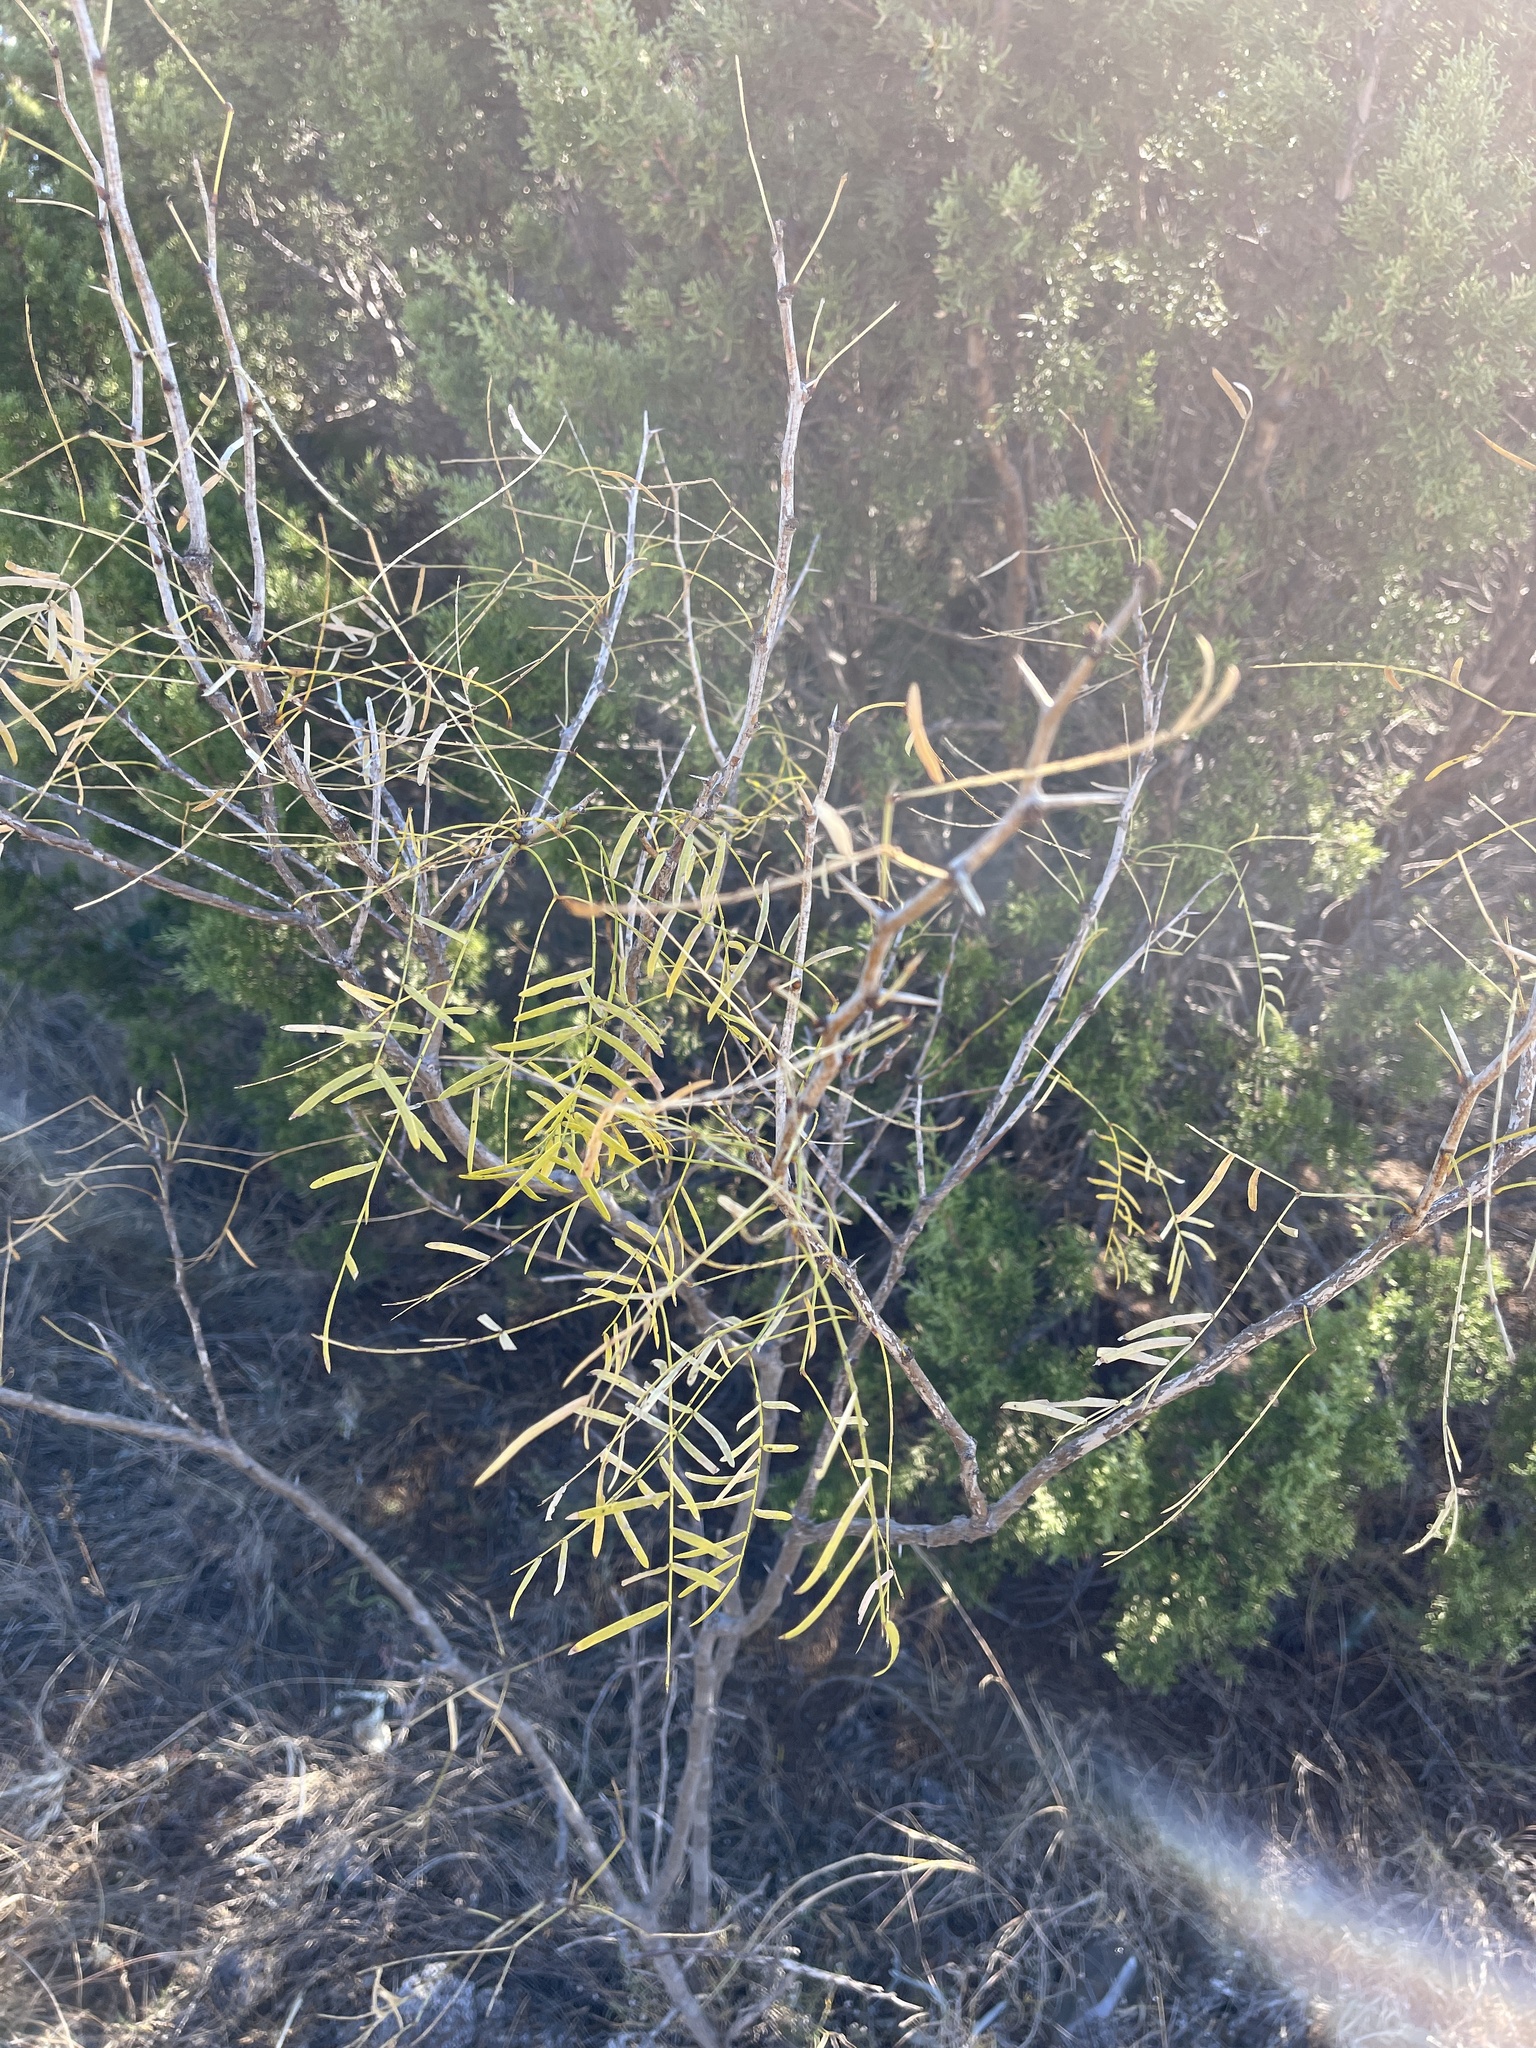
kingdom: Plantae
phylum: Tracheophyta
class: Magnoliopsida
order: Fabales
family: Fabaceae
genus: Prosopis
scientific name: Prosopis glandulosa
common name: Honey mesquite
